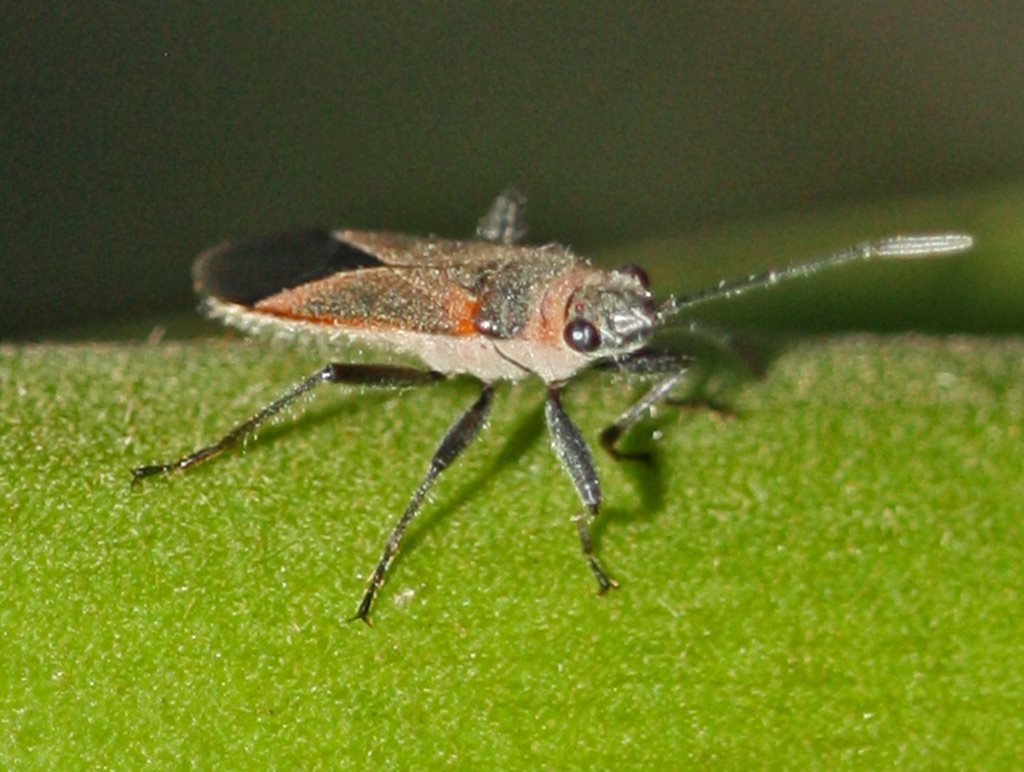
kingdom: Animalia
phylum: Arthropoda
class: Insecta
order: Hemiptera
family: Lygaeidae
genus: Arocatus
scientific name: Arocatus rusticus
